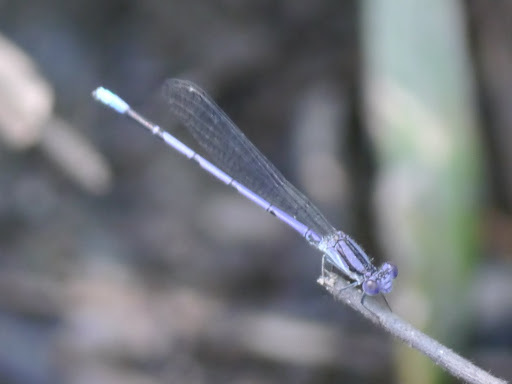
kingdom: Animalia
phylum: Arthropoda
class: Insecta
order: Odonata
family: Coenagrionidae
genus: Argia
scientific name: Argia fumipennis
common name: Variable dancer
